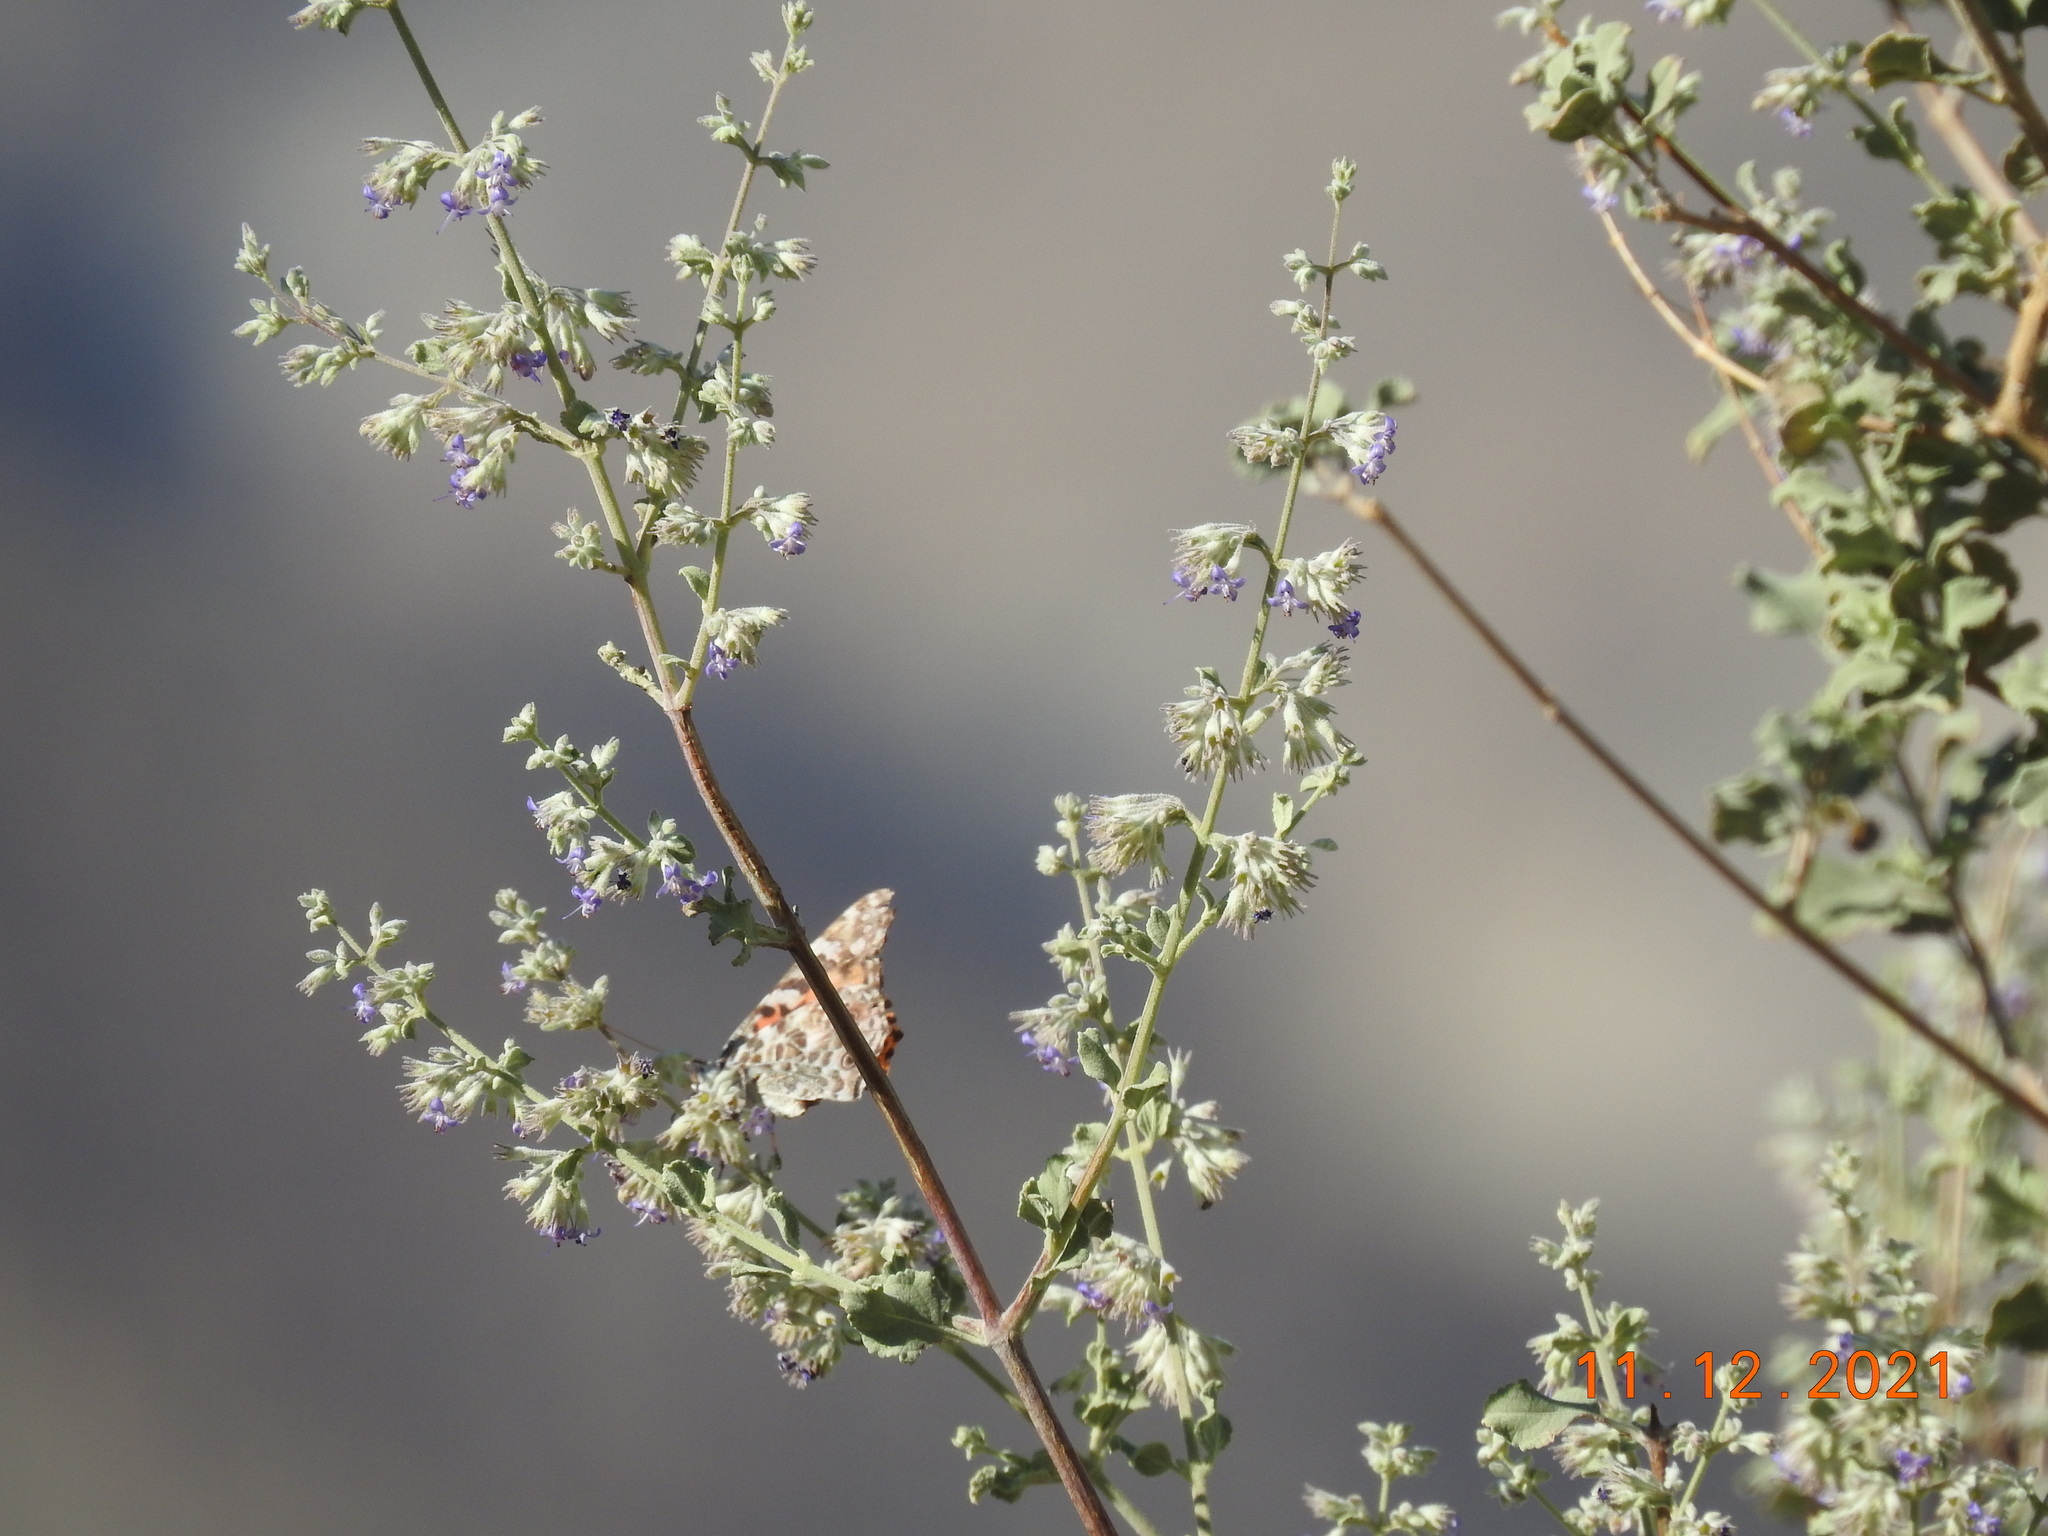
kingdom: Animalia
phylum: Arthropoda
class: Insecta
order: Lepidoptera
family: Nymphalidae
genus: Vanessa
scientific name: Vanessa cardui
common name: Painted lady
